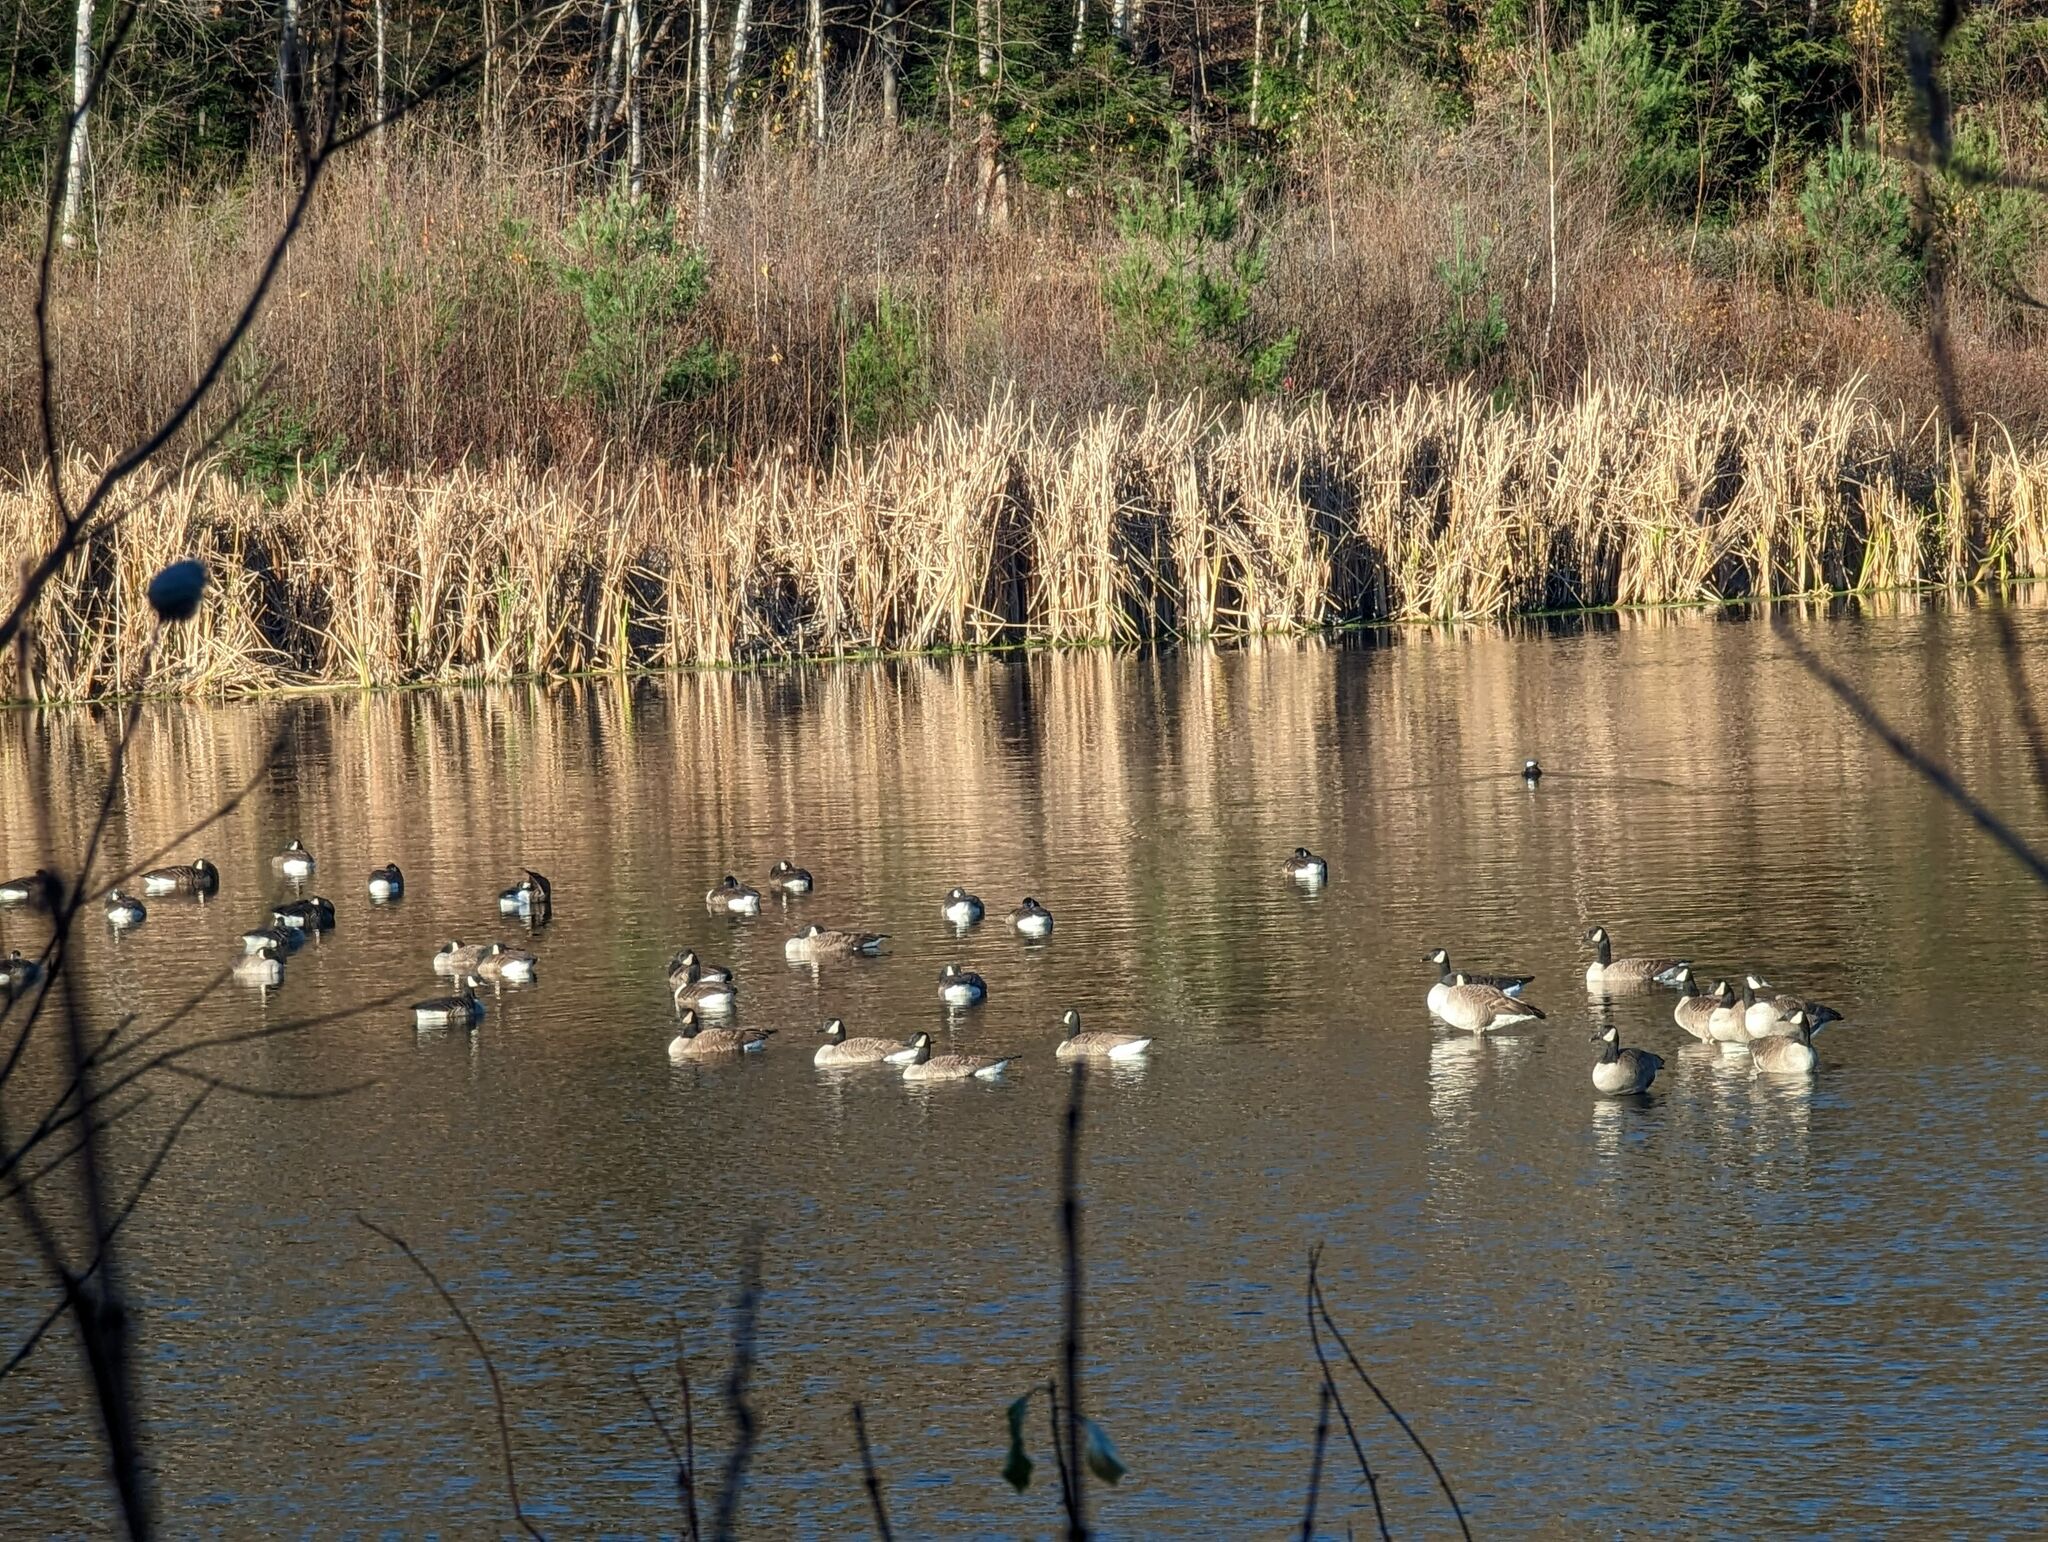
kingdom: Animalia
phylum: Chordata
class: Aves
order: Anseriformes
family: Anatidae
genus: Branta
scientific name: Branta canadensis
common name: Canada goose
